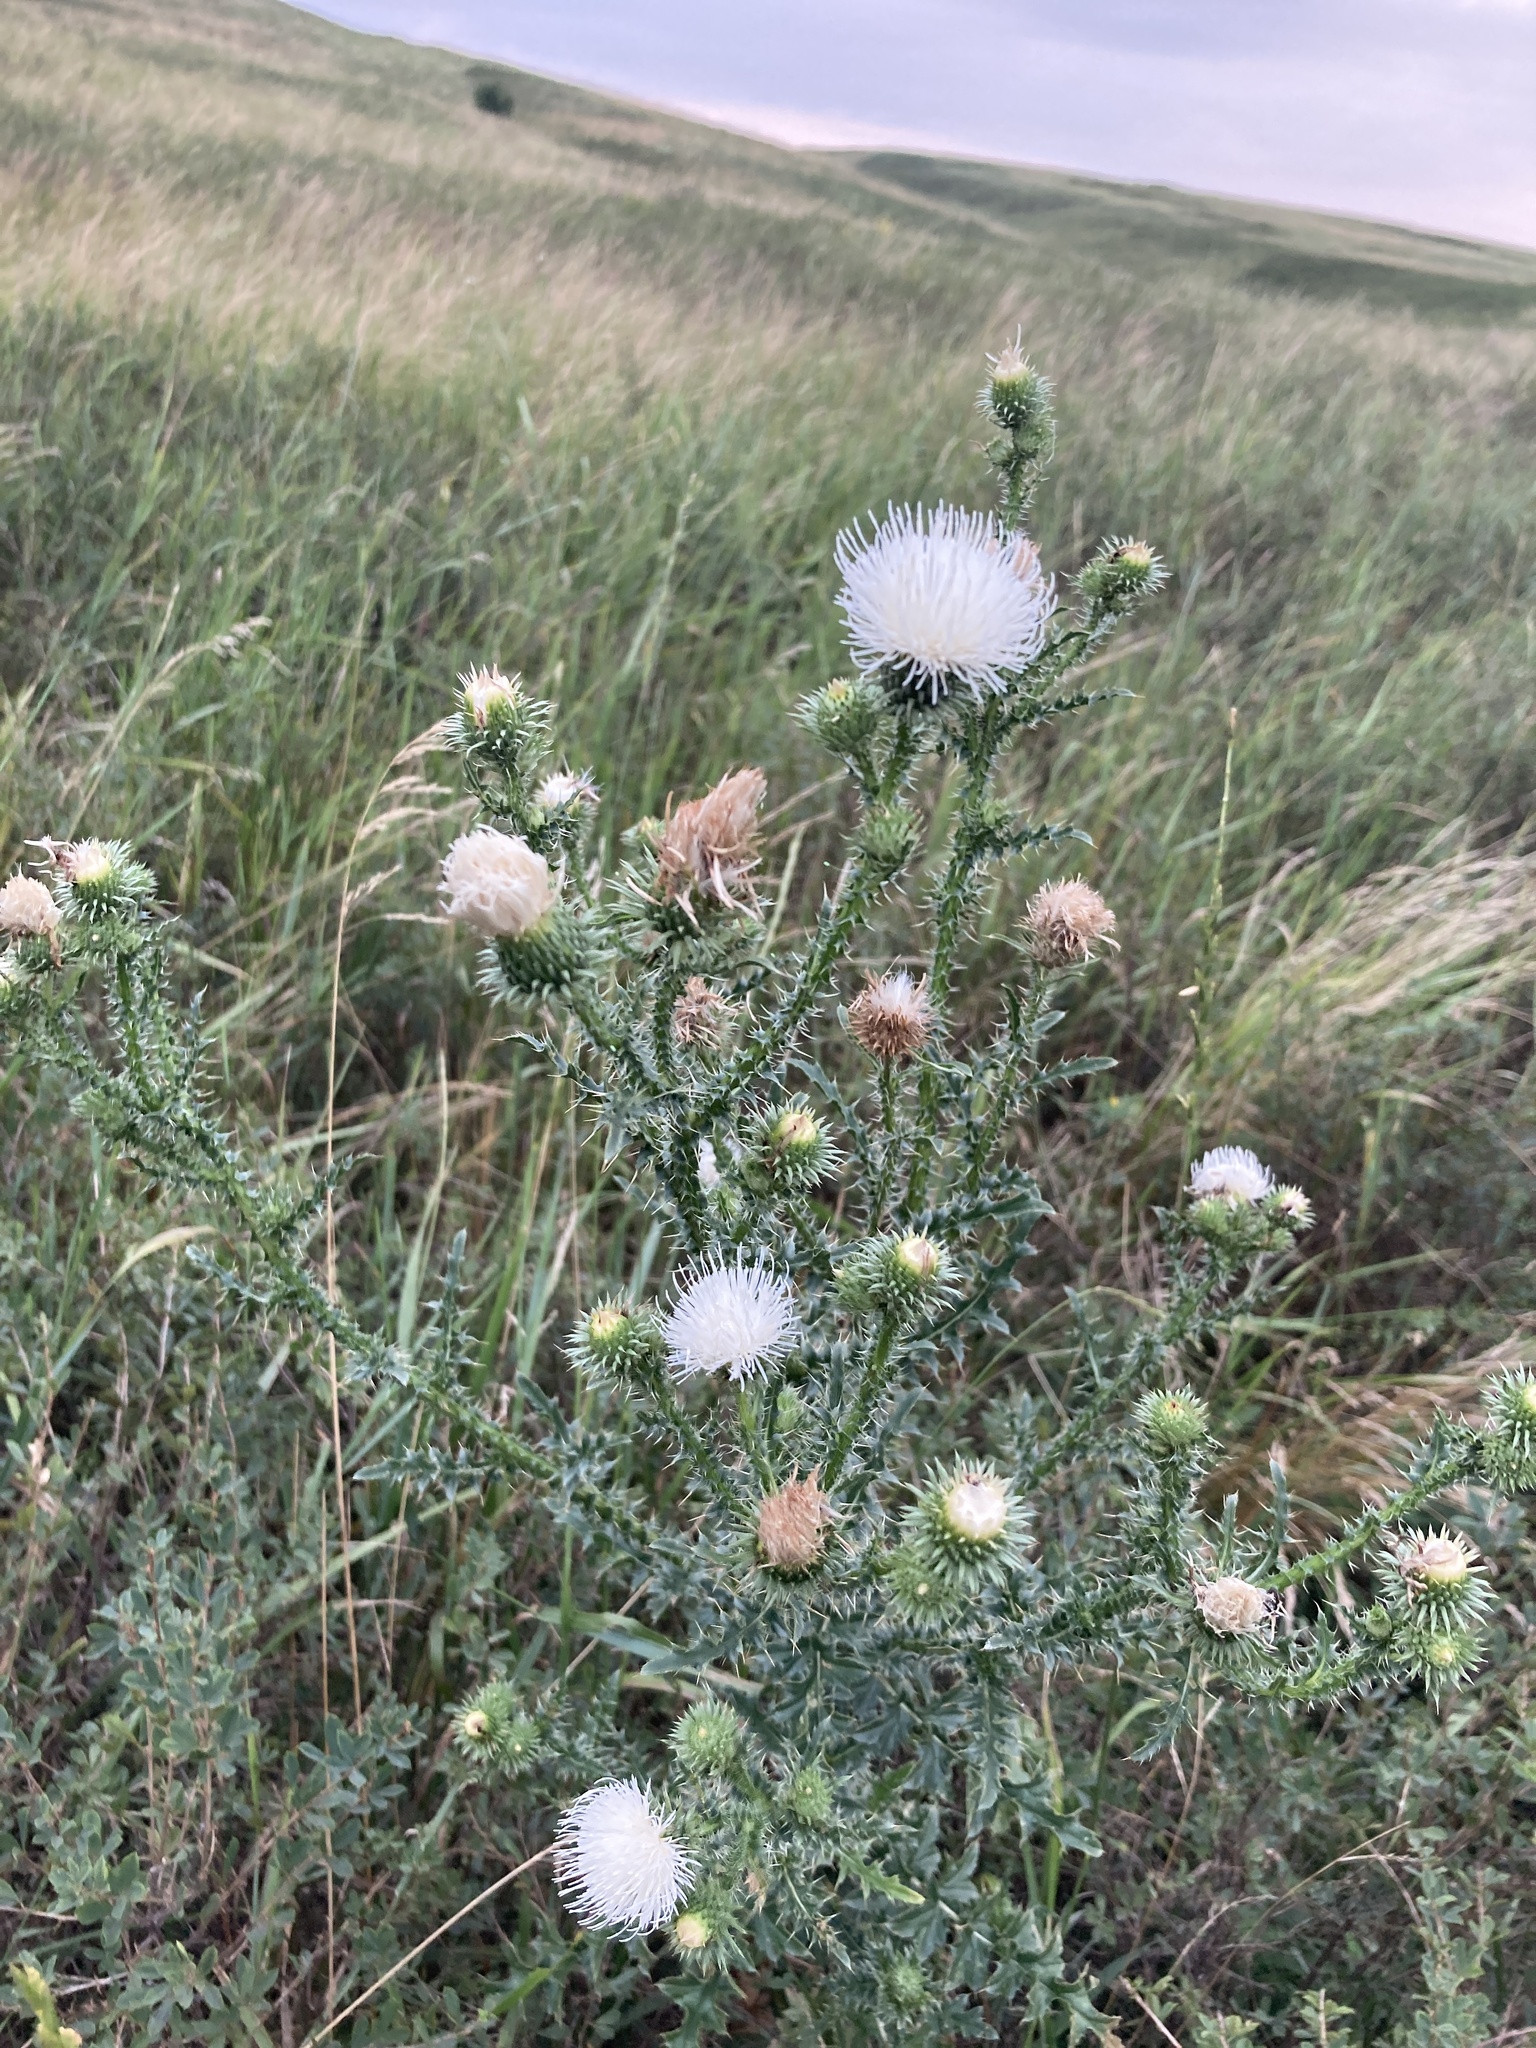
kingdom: Plantae
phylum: Tracheophyta
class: Magnoliopsida
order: Asterales
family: Asteraceae
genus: Carduus
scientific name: Carduus acanthoides
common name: Plumeless thistle
